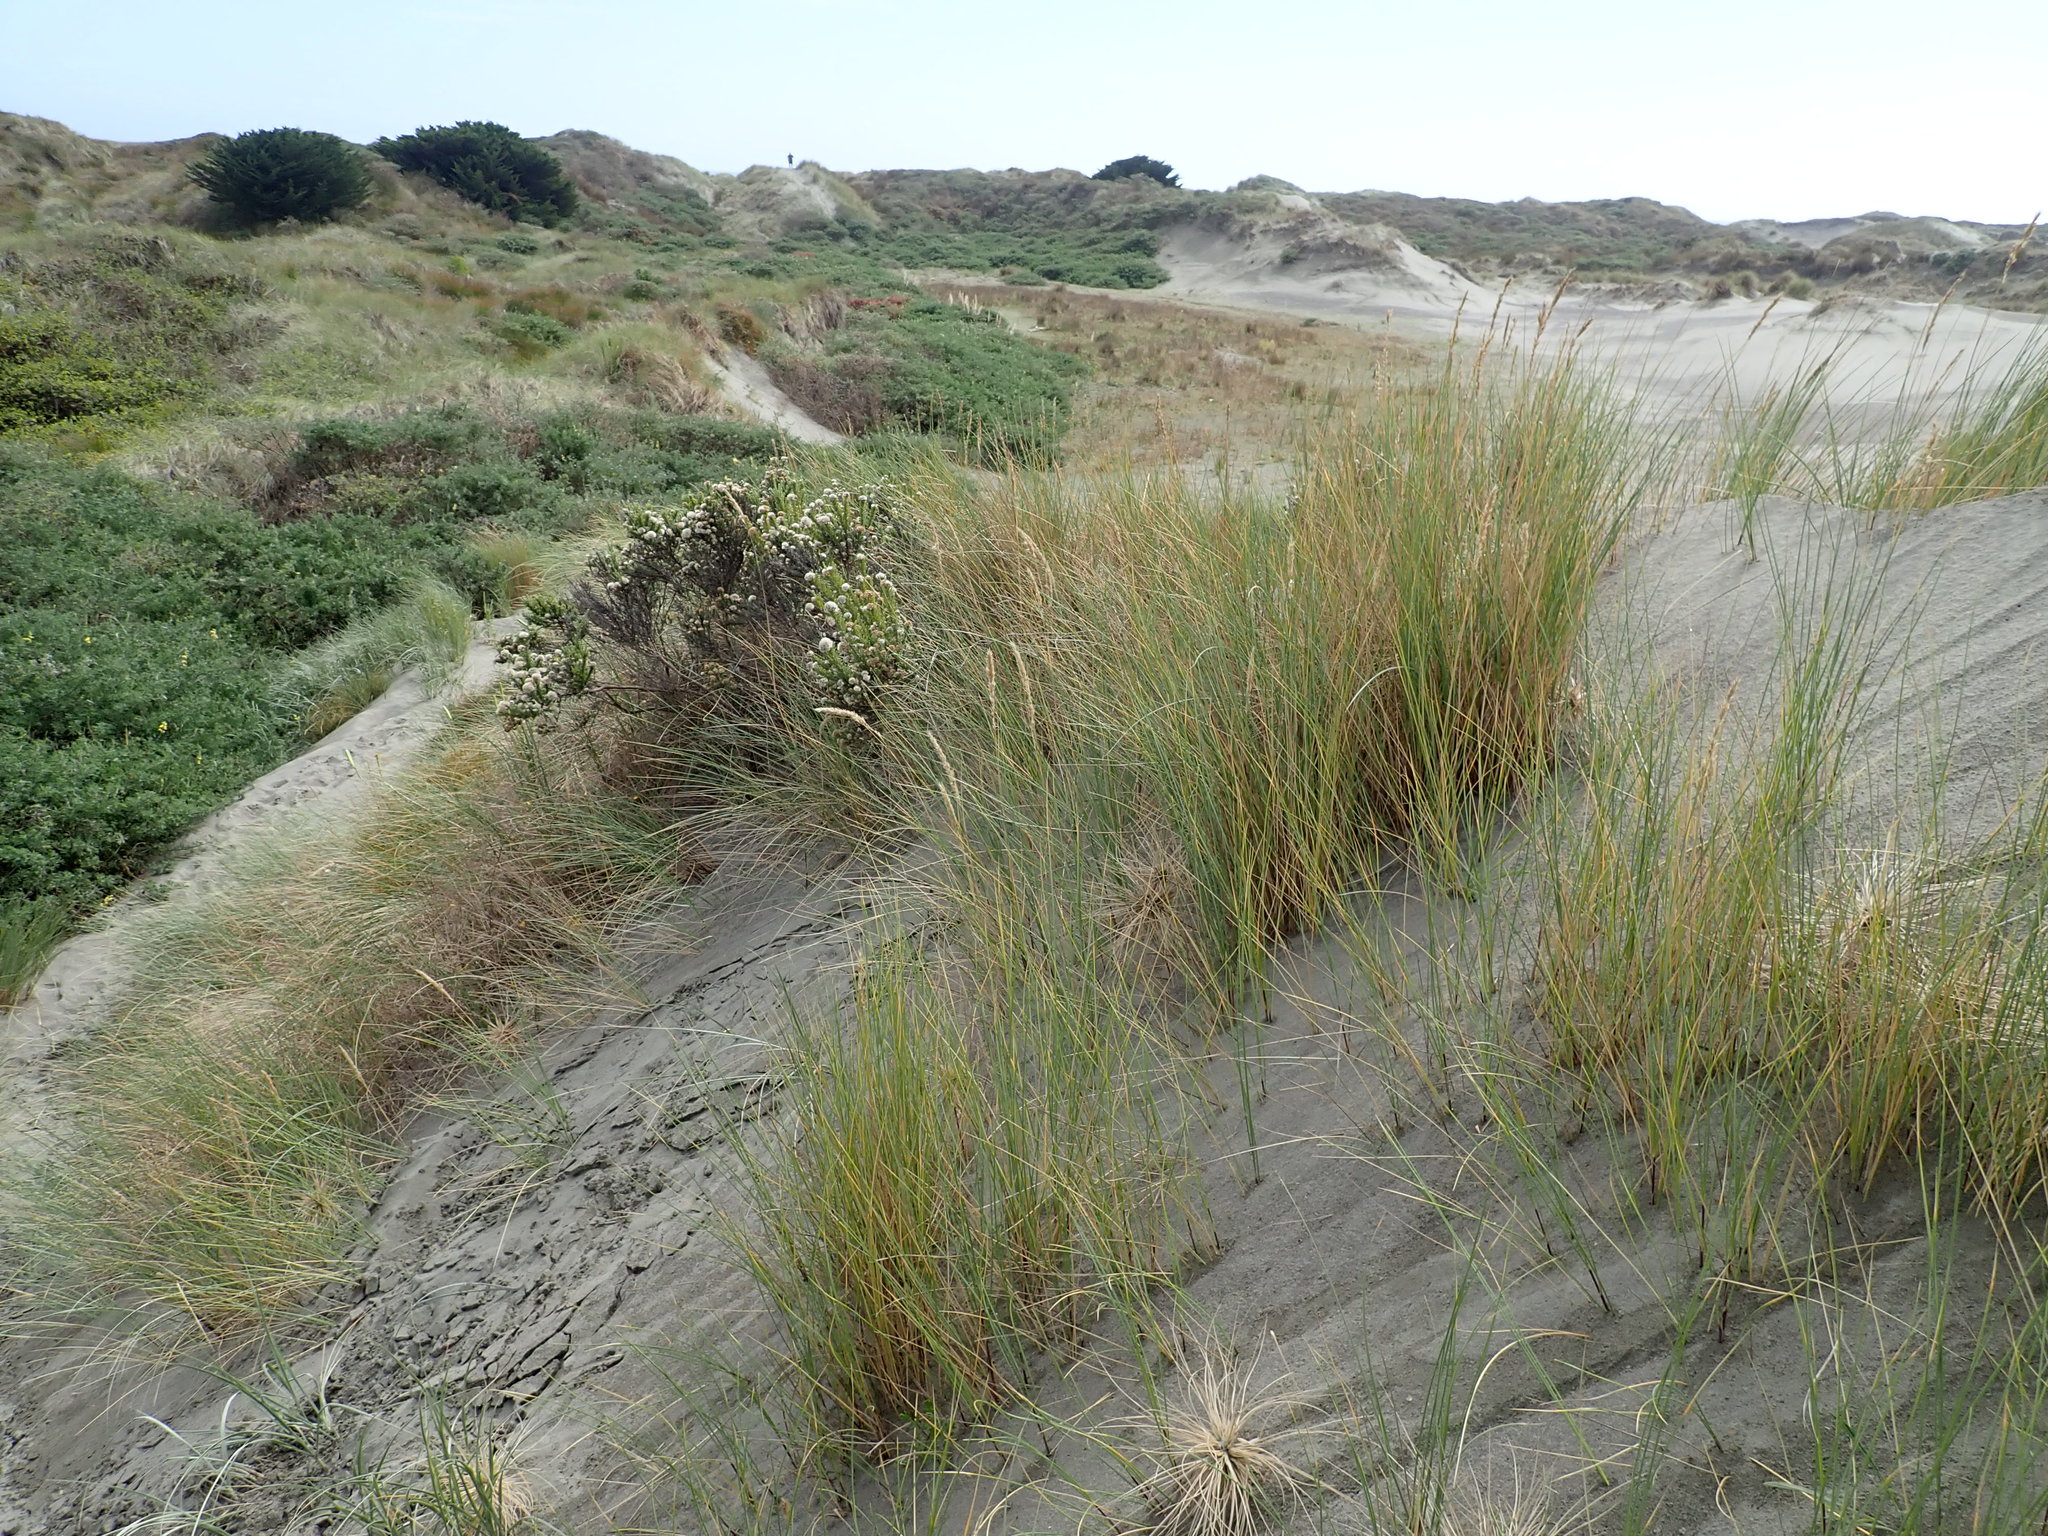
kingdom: Plantae
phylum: Tracheophyta
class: Magnoliopsida
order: Asterales
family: Asteraceae
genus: Ozothamnus
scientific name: Ozothamnus leptophyllus
